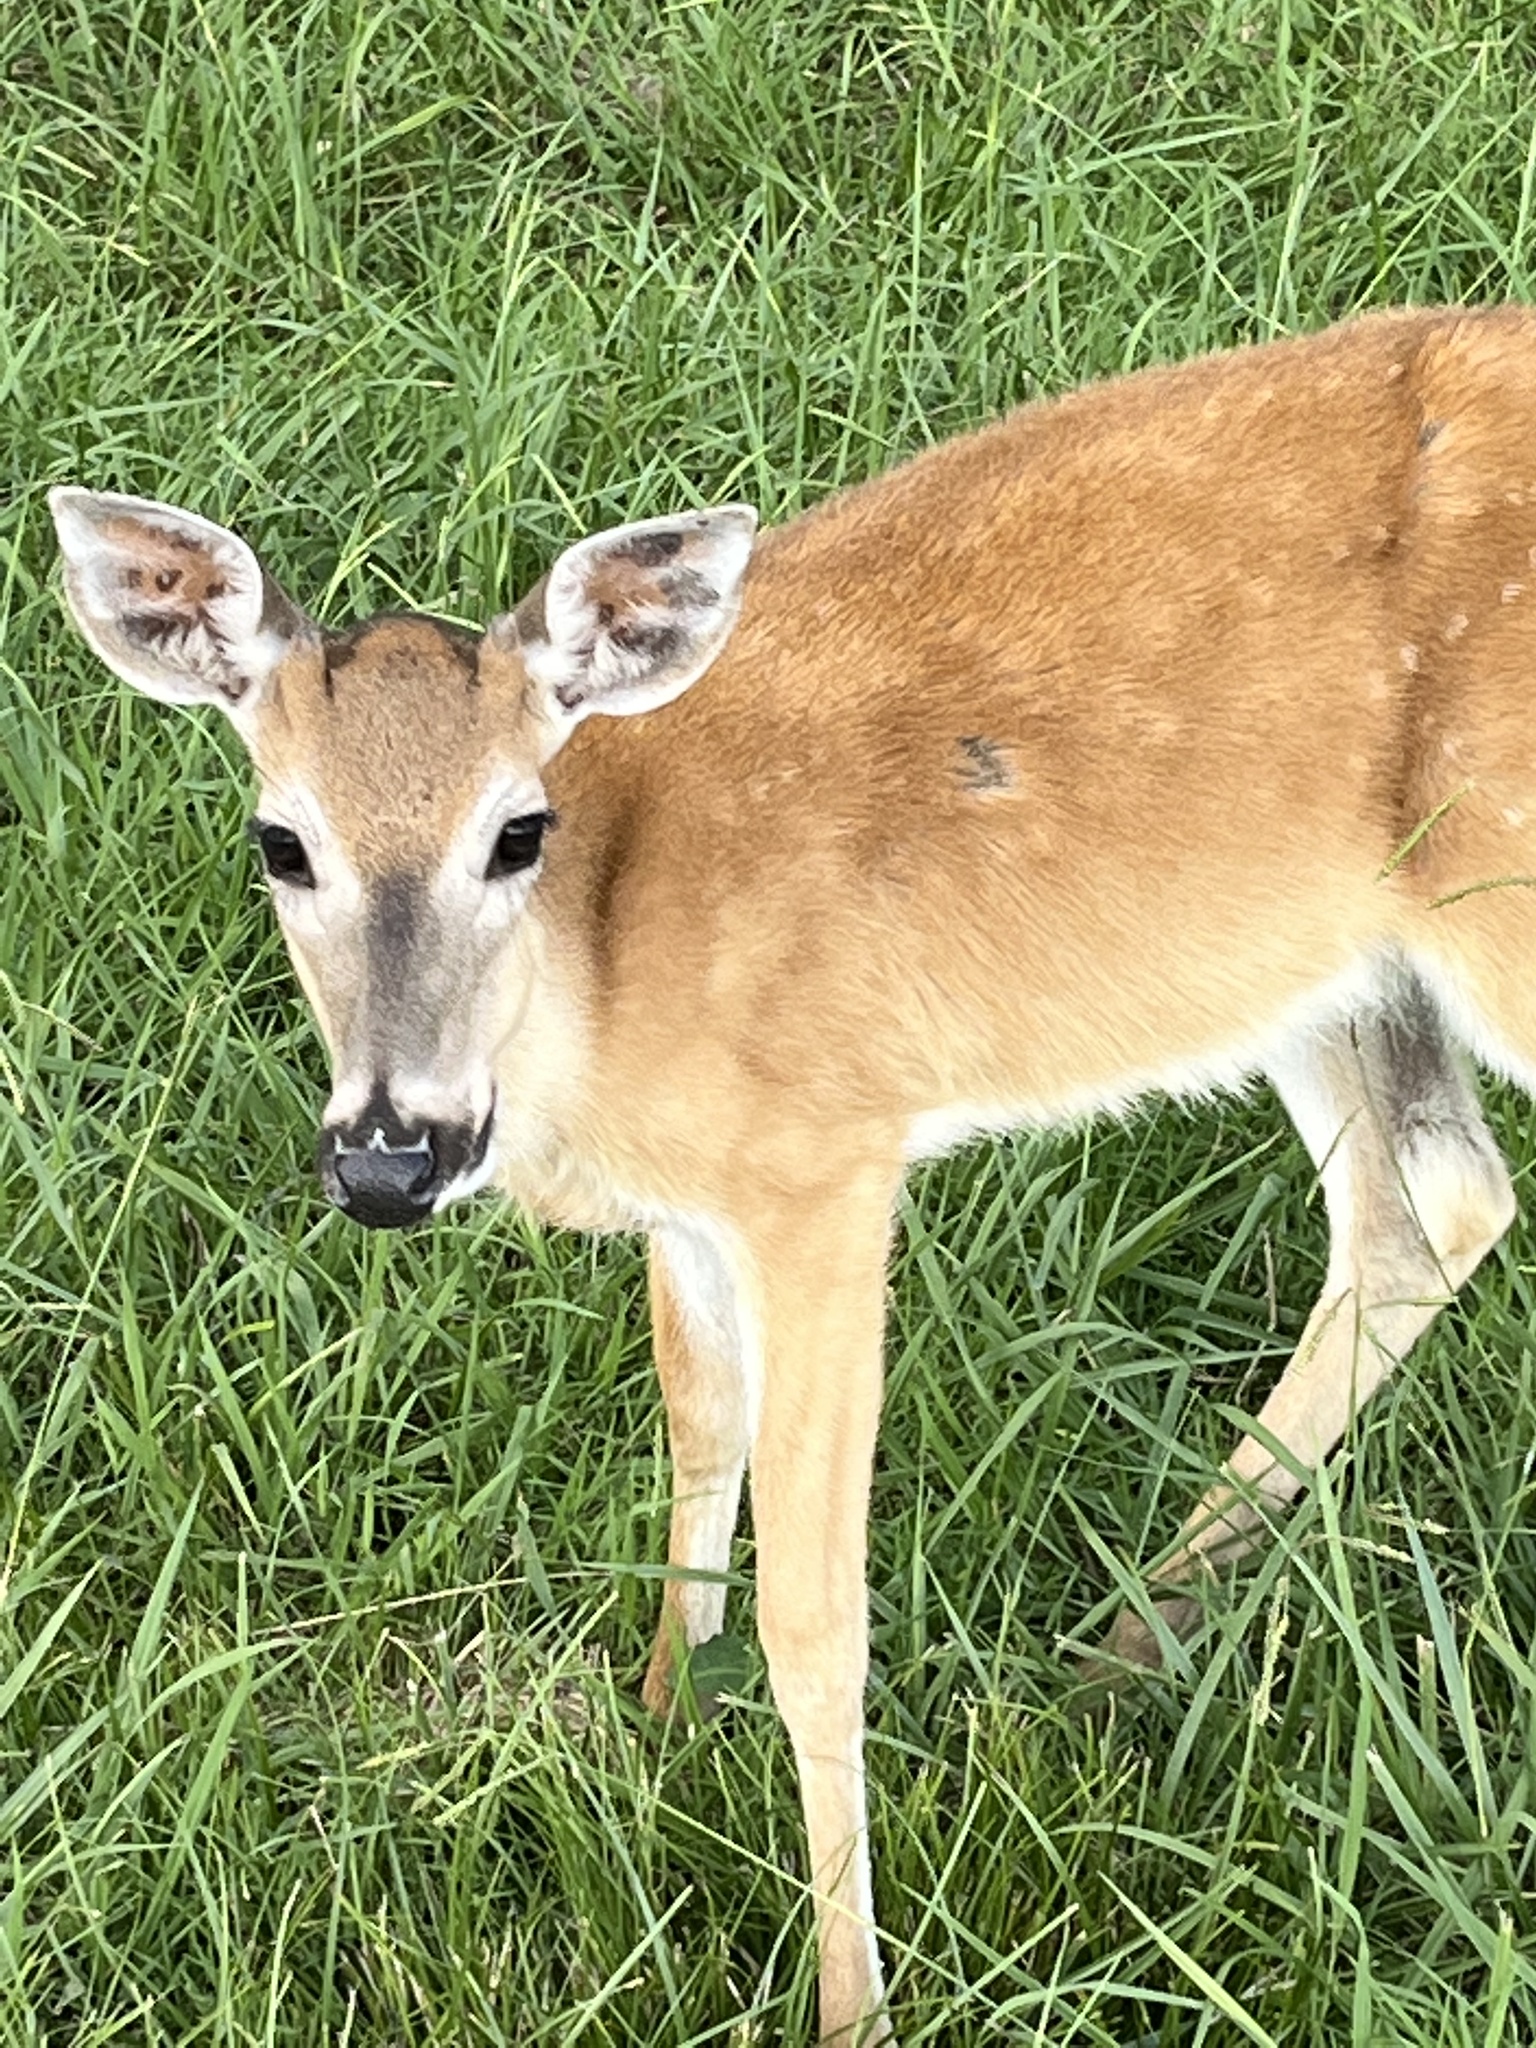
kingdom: Animalia
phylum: Chordata
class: Mammalia
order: Artiodactyla
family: Cervidae
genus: Odocoileus
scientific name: Odocoileus virginianus
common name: White-tailed deer
